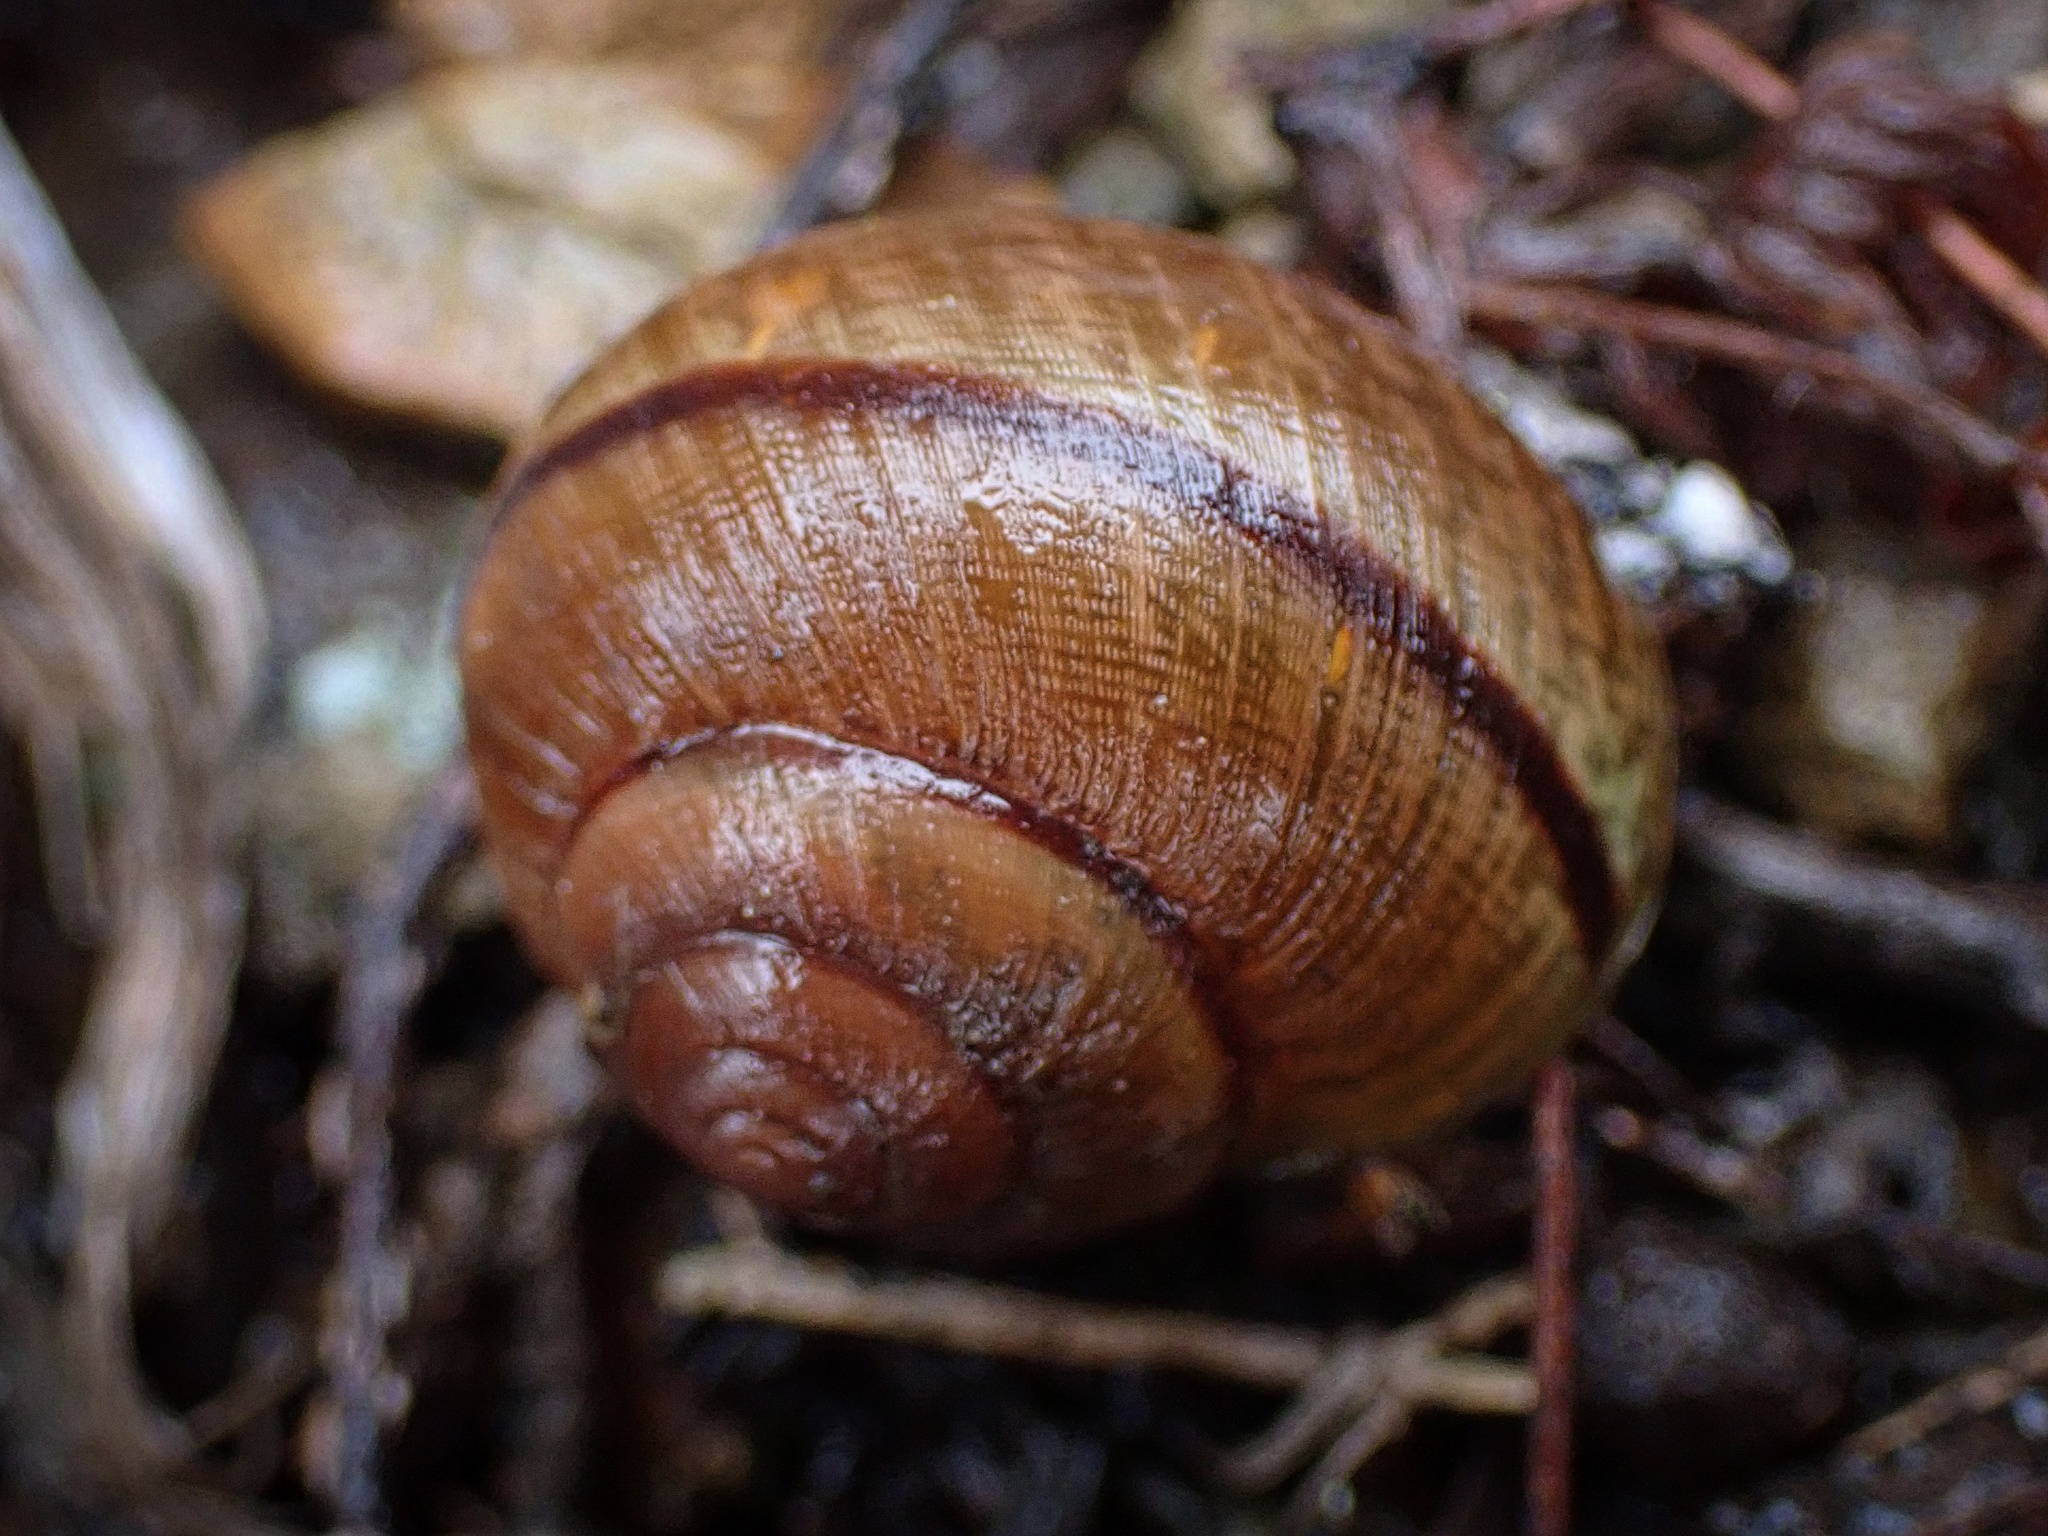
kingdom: Animalia
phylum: Mollusca
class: Gastropoda
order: Stylommatophora
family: Xanthonychidae
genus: Helminthoglypta
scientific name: Helminthoglypta nickliniana
